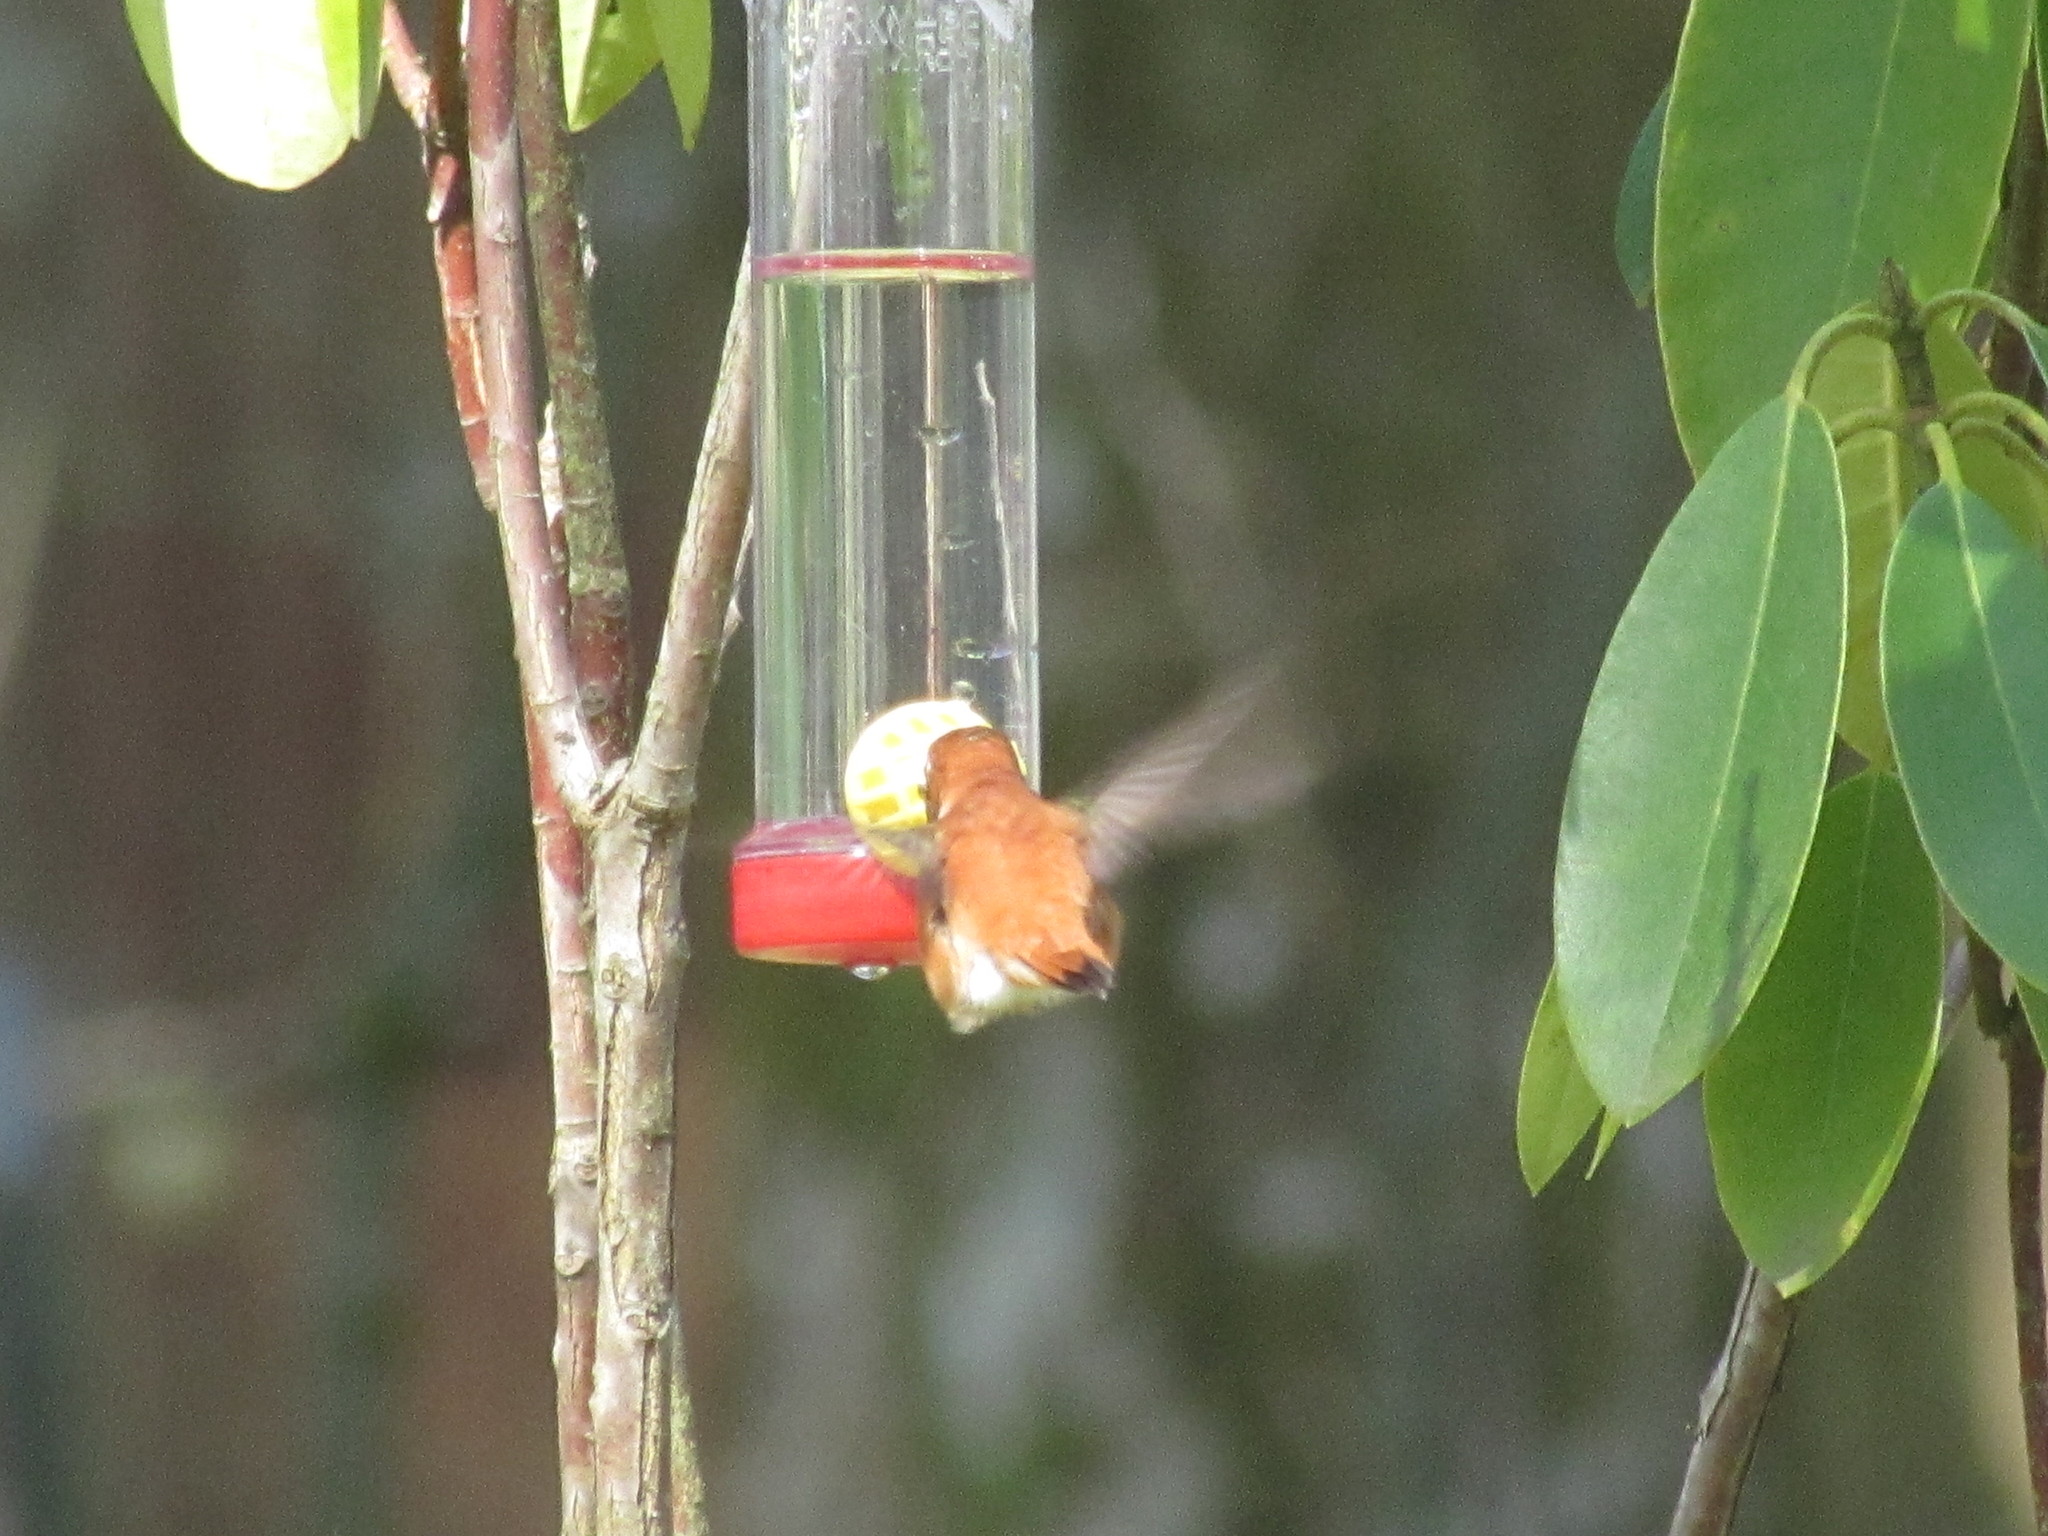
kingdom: Animalia
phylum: Chordata
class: Aves
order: Apodiformes
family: Trochilidae
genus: Selasphorus
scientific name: Selasphorus rufus
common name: Rufous hummingbird
